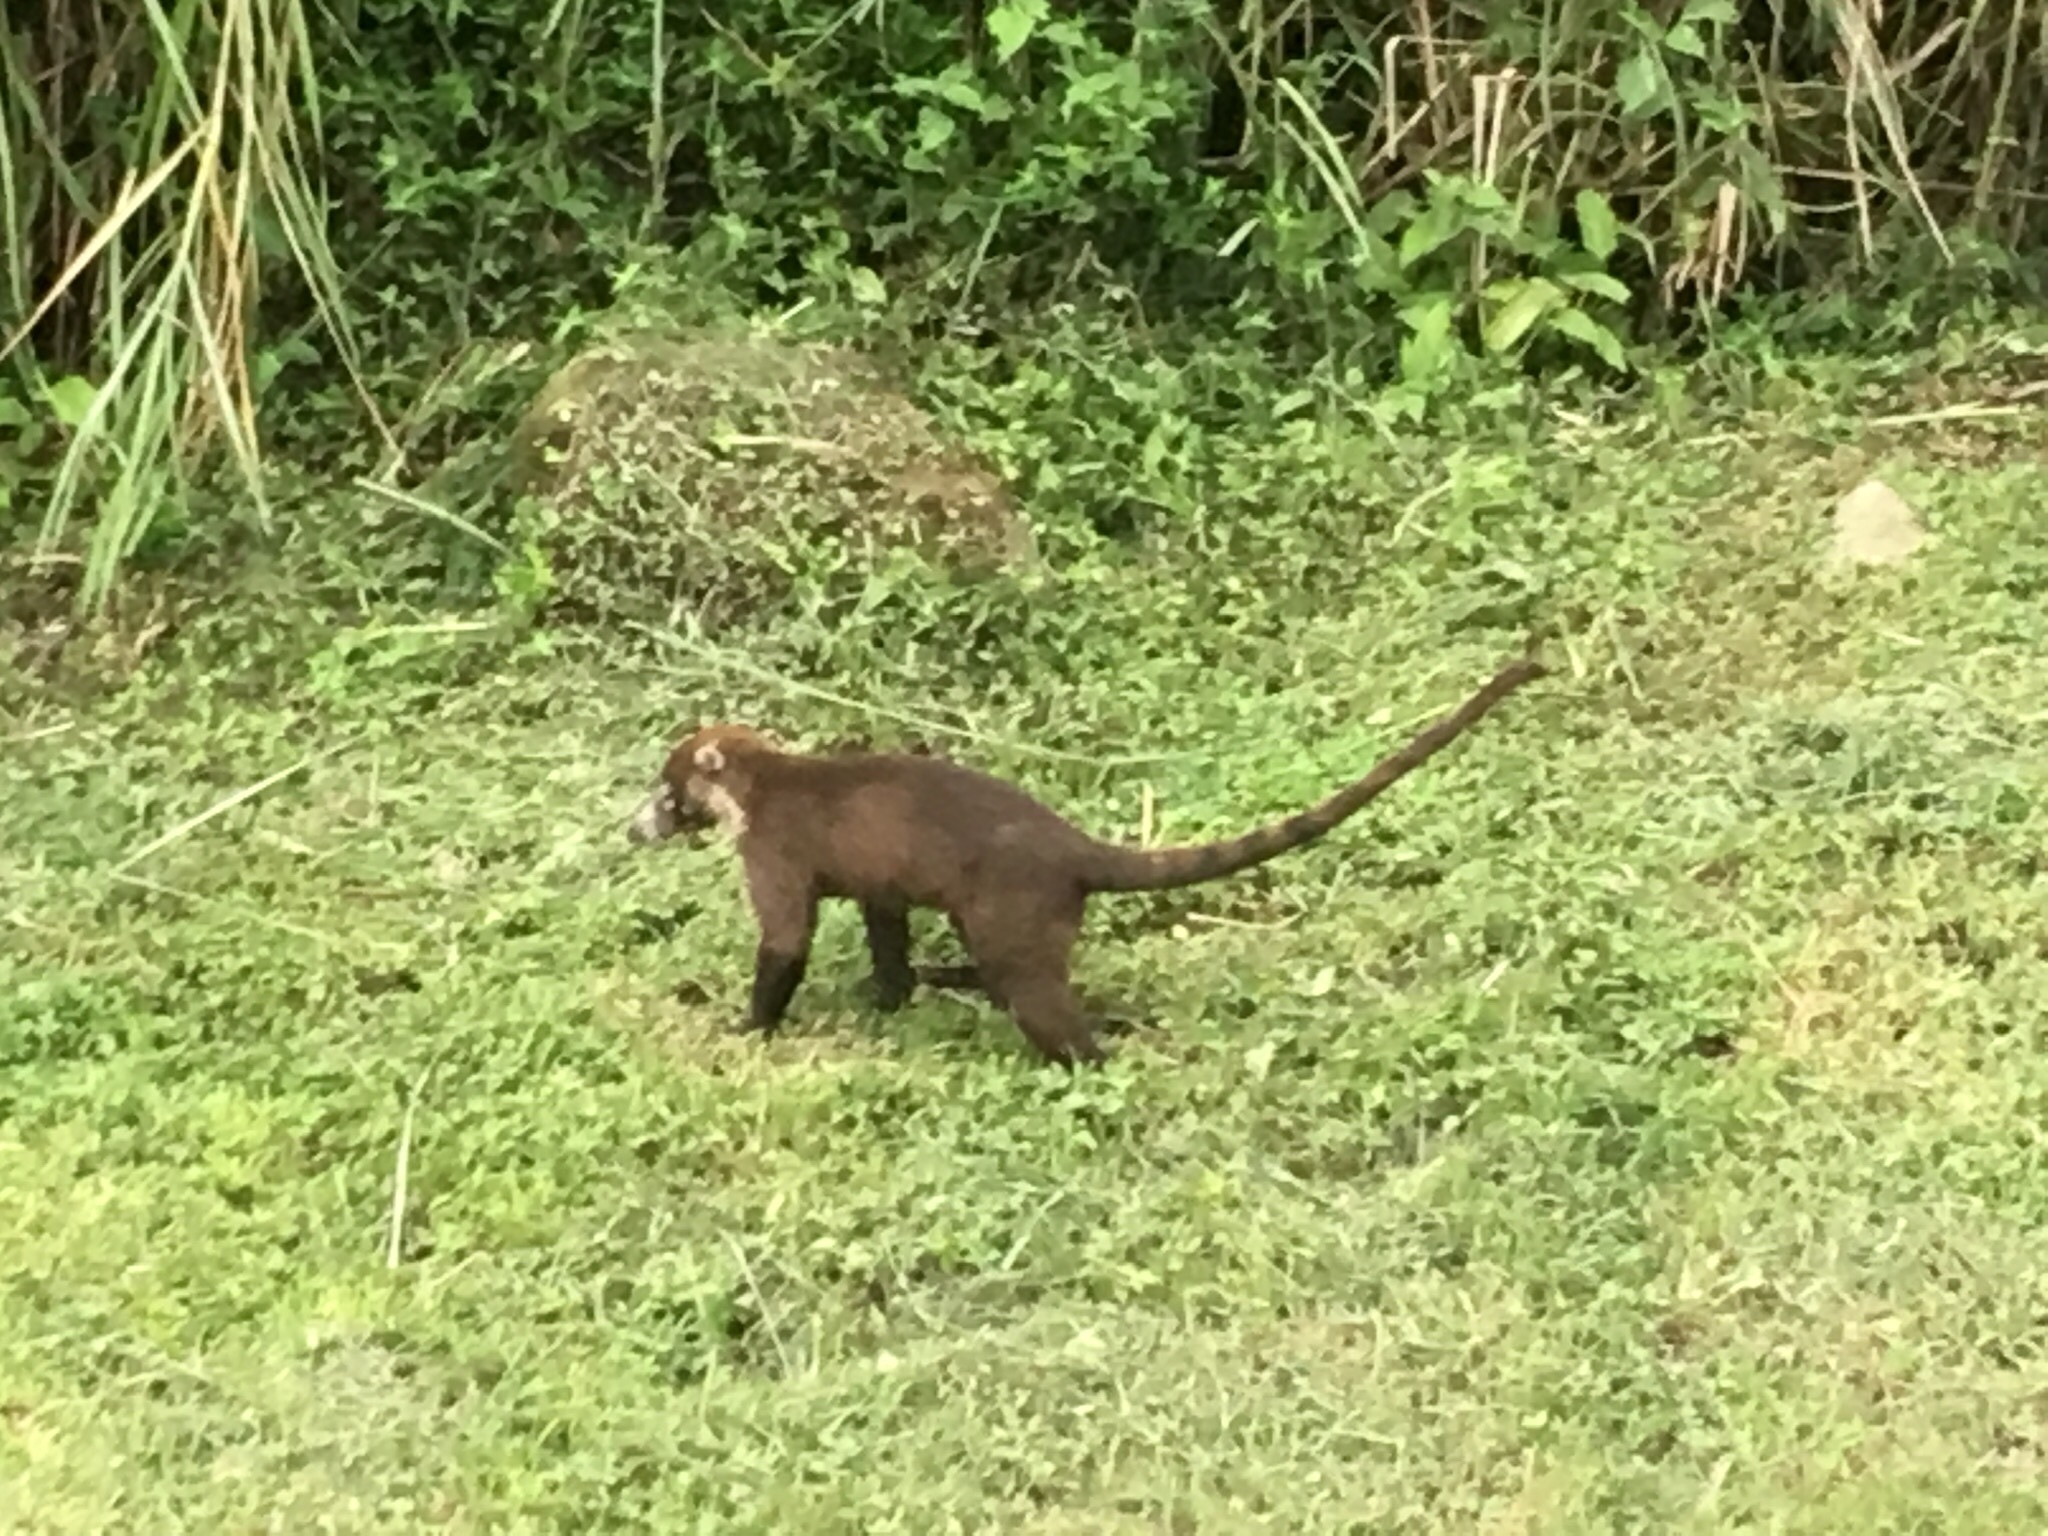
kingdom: Animalia
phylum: Chordata
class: Mammalia
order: Carnivora
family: Procyonidae
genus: Nasua
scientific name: Nasua narica
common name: White-nosed coati
